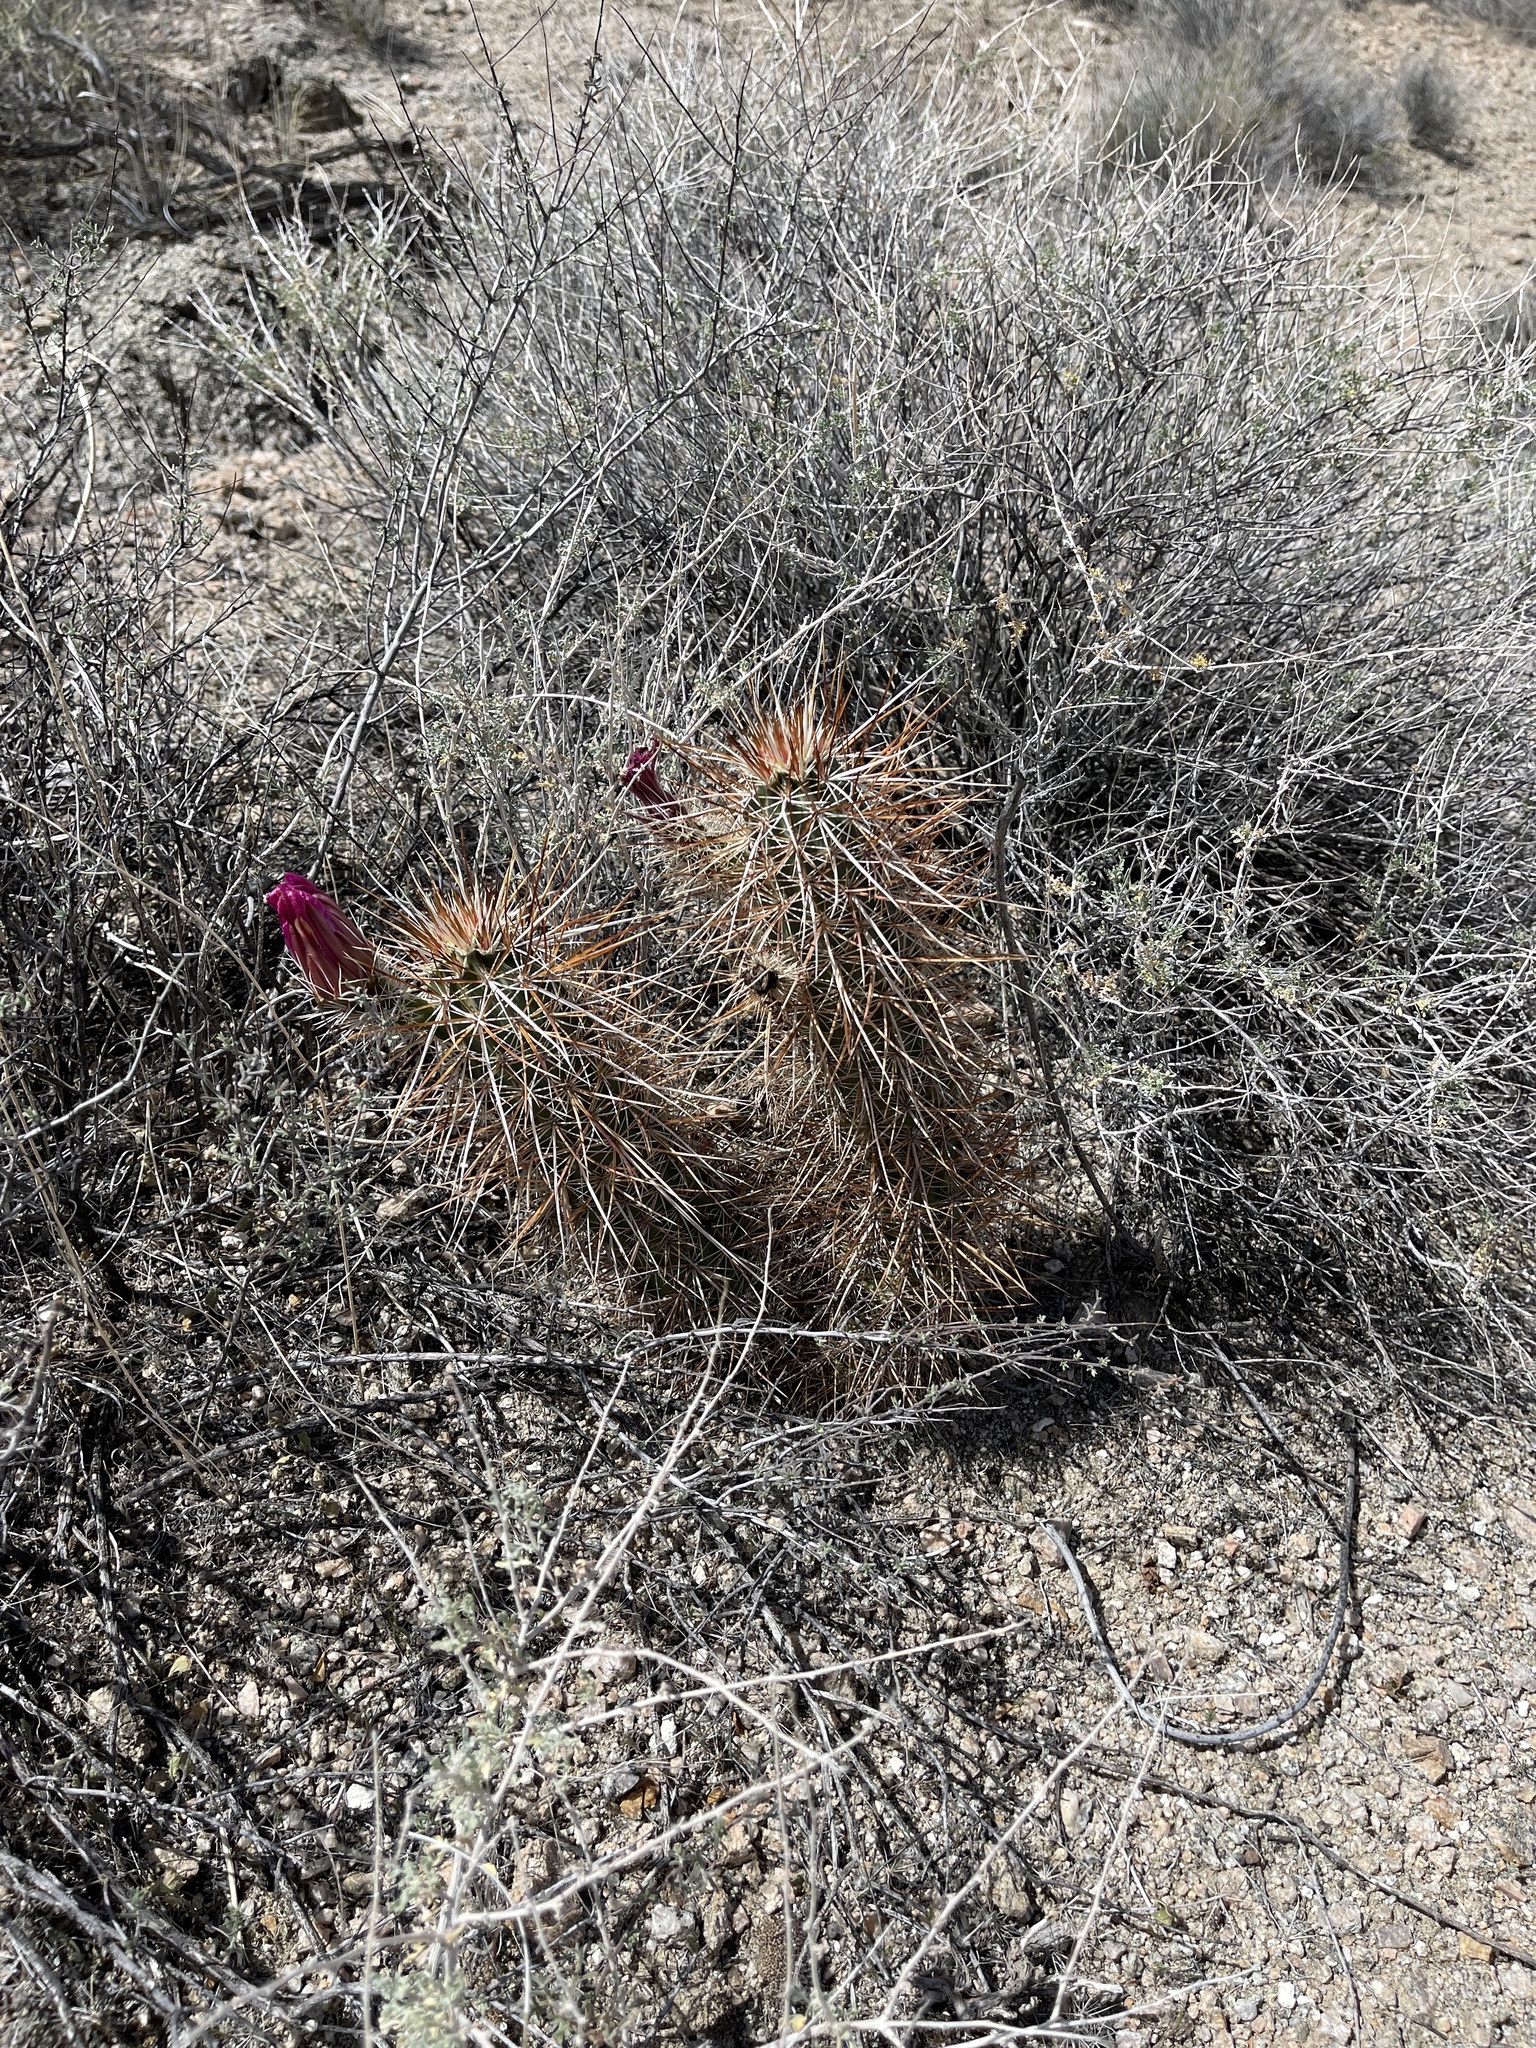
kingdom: Plantae
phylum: Tracheophyta
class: Magnoliopsida
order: Caryophyllales
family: Cactaceae
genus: Echinocereus
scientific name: Echinocereus engelmannii
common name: Engelmann's hedgehog cactus
